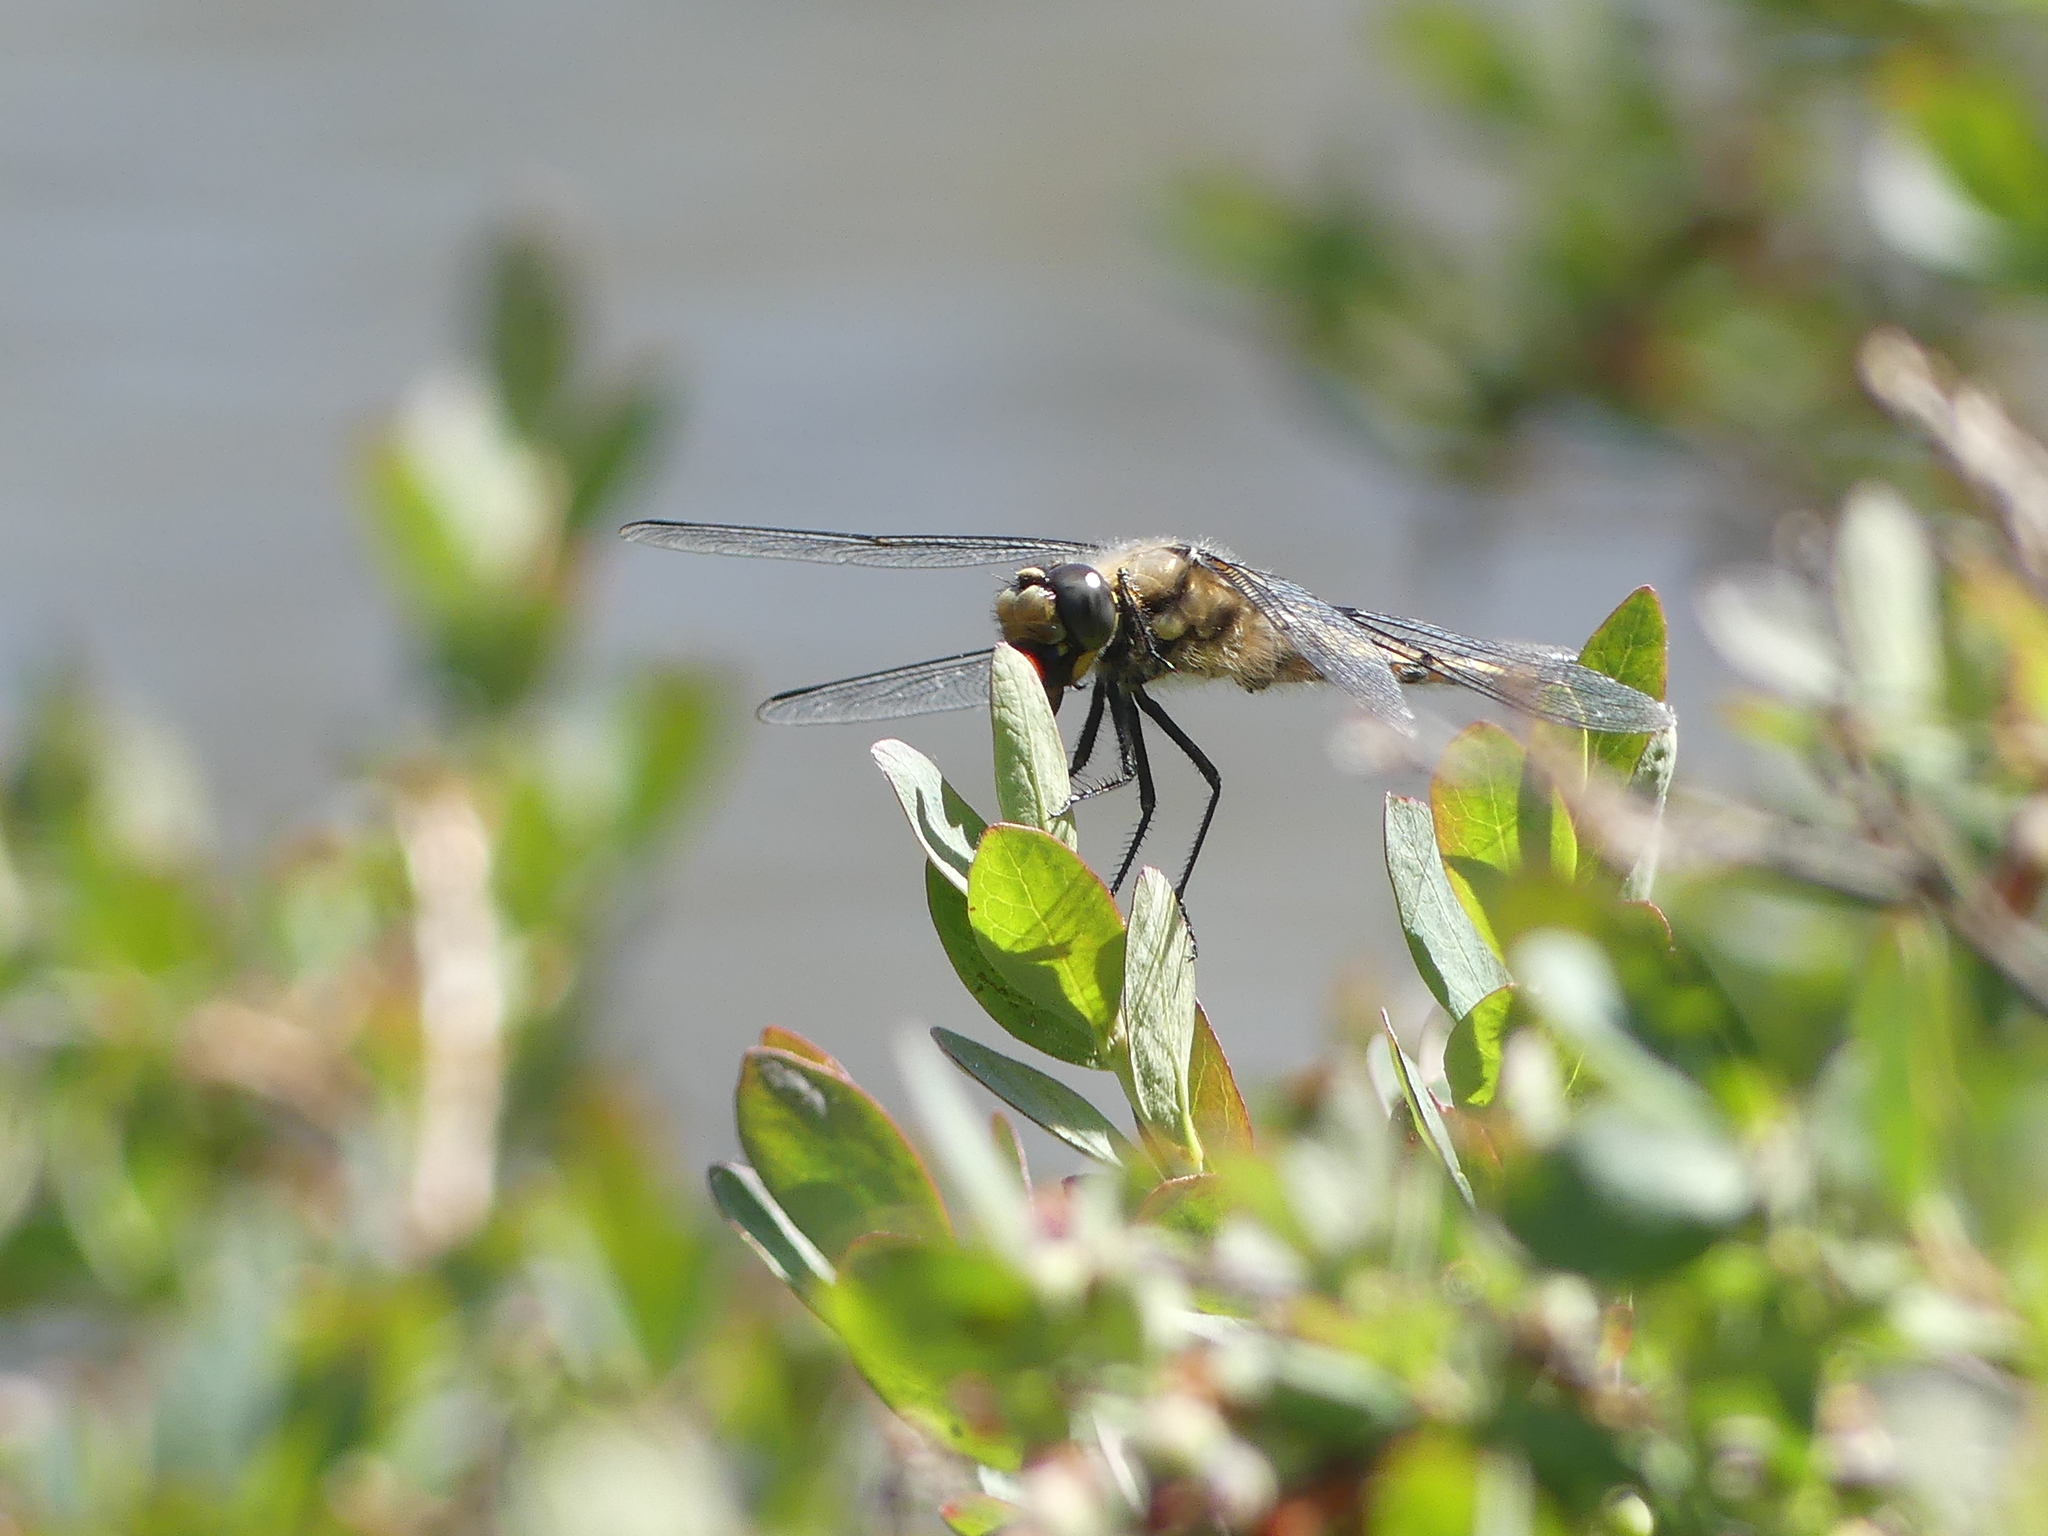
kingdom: Animalia
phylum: Arthropoda
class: Insecta
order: Odonata
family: Libellulidae
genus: Libellula
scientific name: Libellula quadrimaculata
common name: Four-spotted chaser
